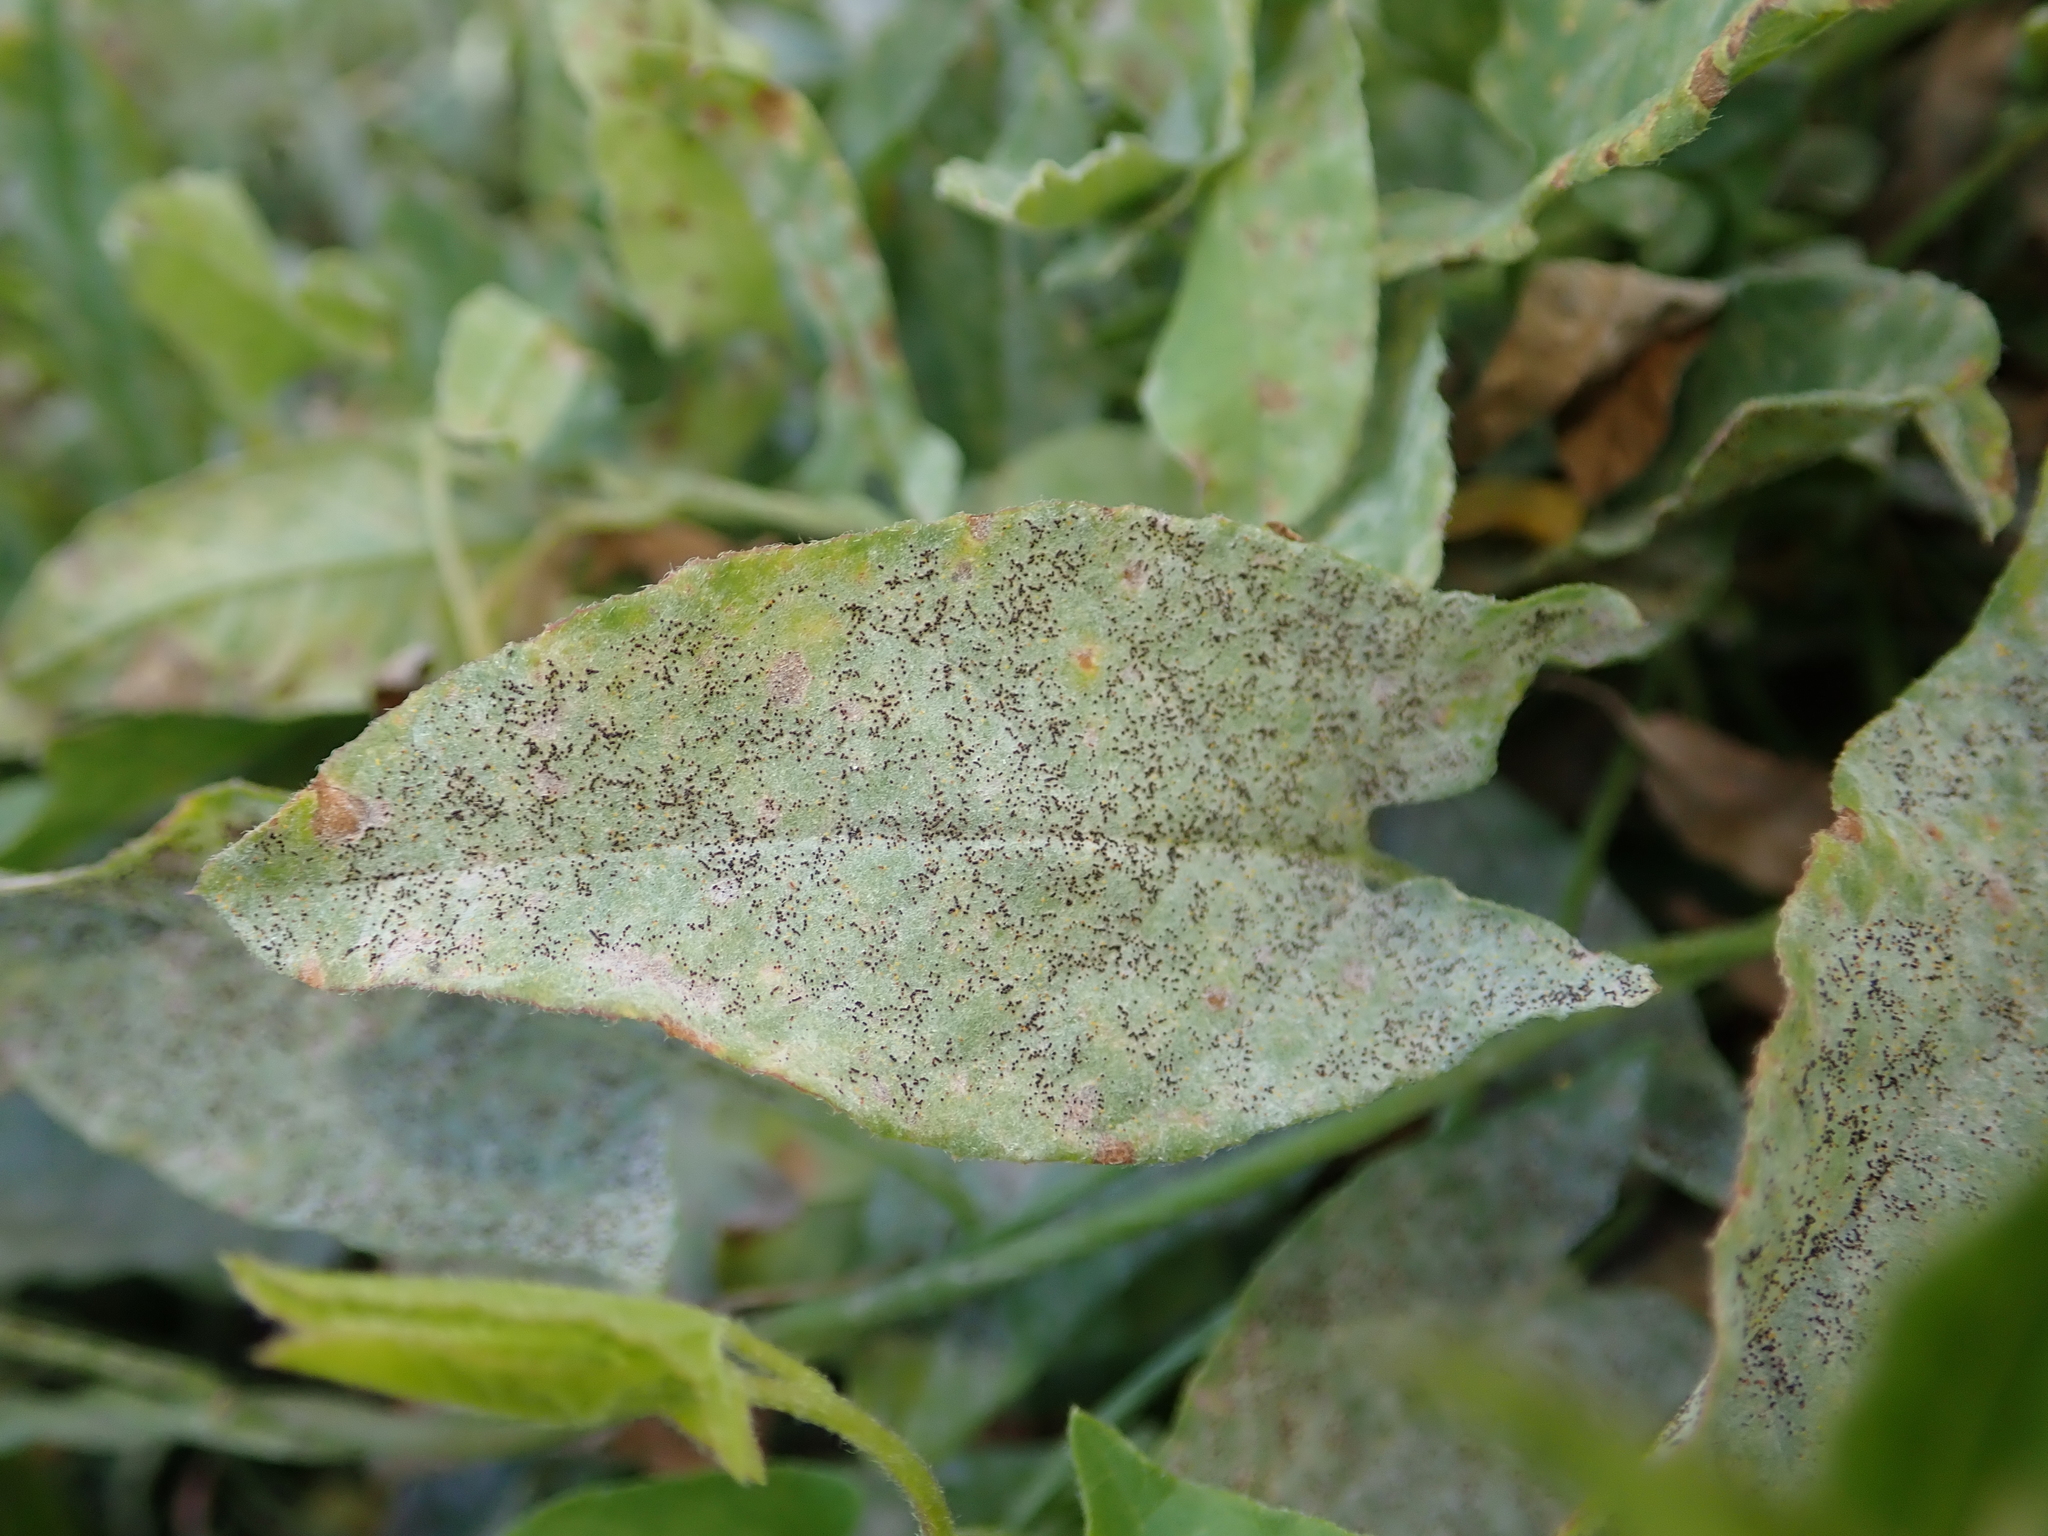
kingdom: Fungi
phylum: Ascomycota
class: Leotiomycetes
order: Helotiales
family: Erysiphaceae
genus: Erysiphe
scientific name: Erysiphe convolvuli
